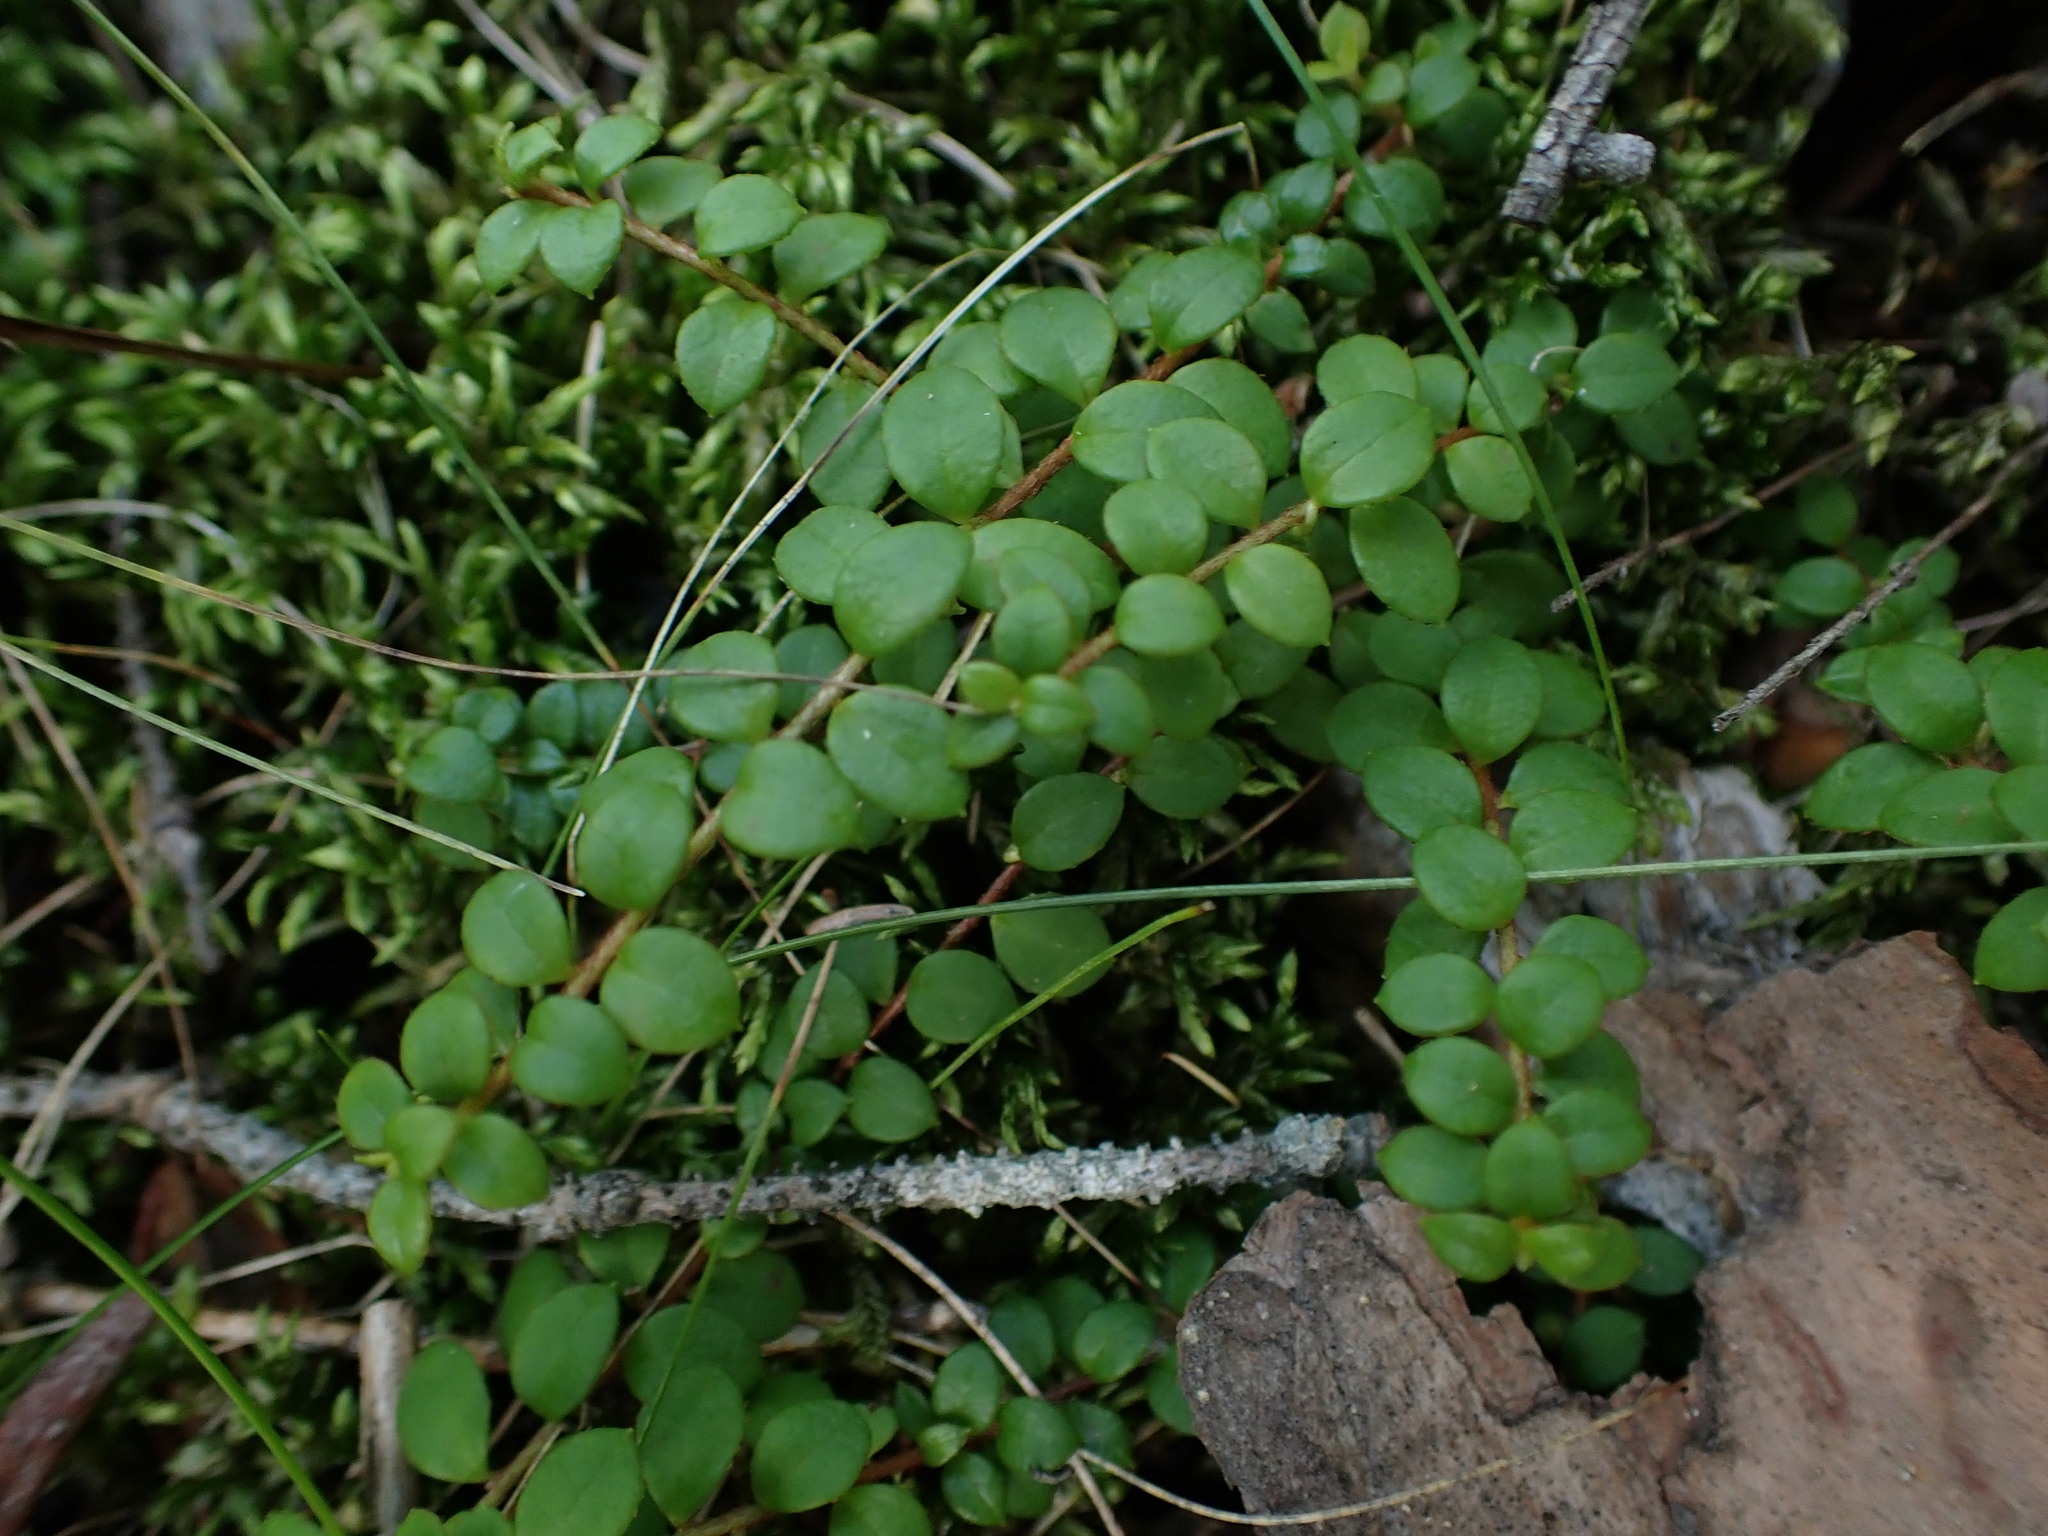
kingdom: Plantae
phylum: Tracheophyta
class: Magnoliopsida
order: Ericales
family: Ericaceae
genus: Gaultheria
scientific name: Gaultheria hispidula
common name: Cancer wintergreen
